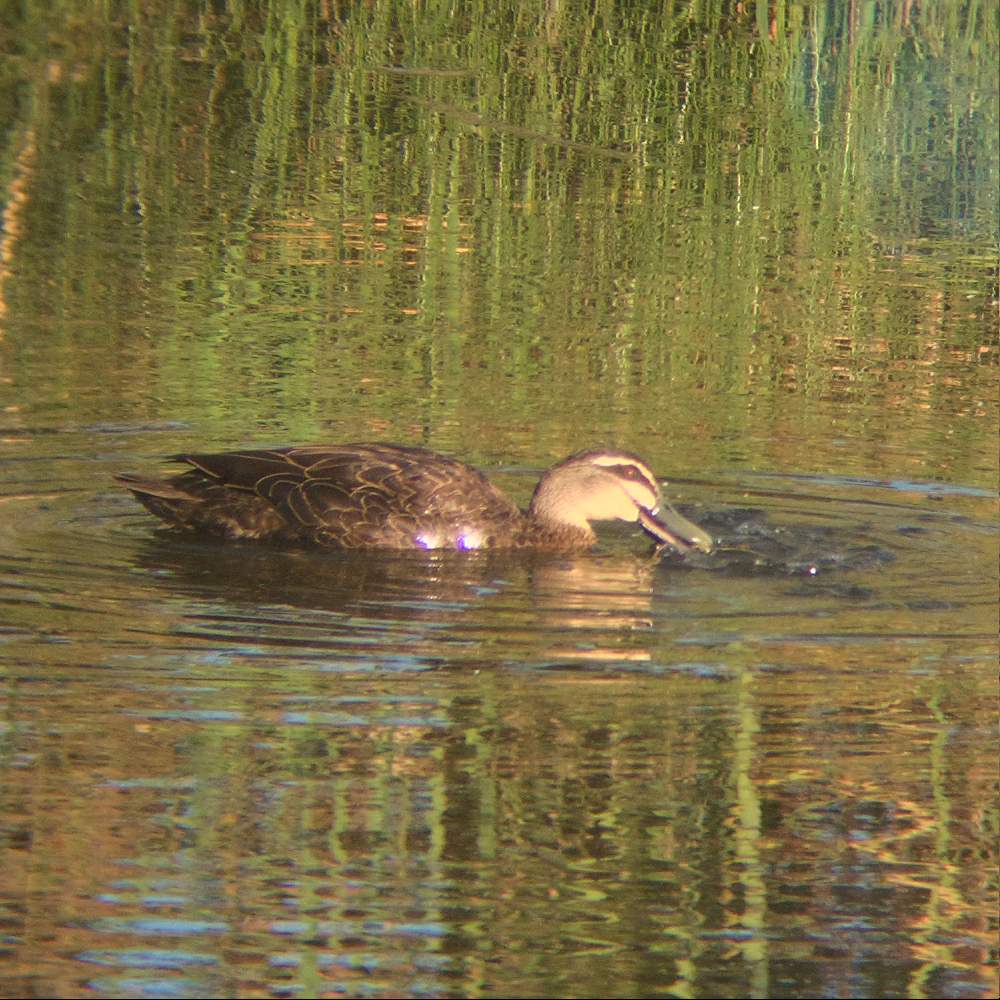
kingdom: Animalia
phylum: Chordata
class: Aves
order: Anseriformes
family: Anatidae
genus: Anas
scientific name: Anas superciliosa
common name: Pacific black duck
